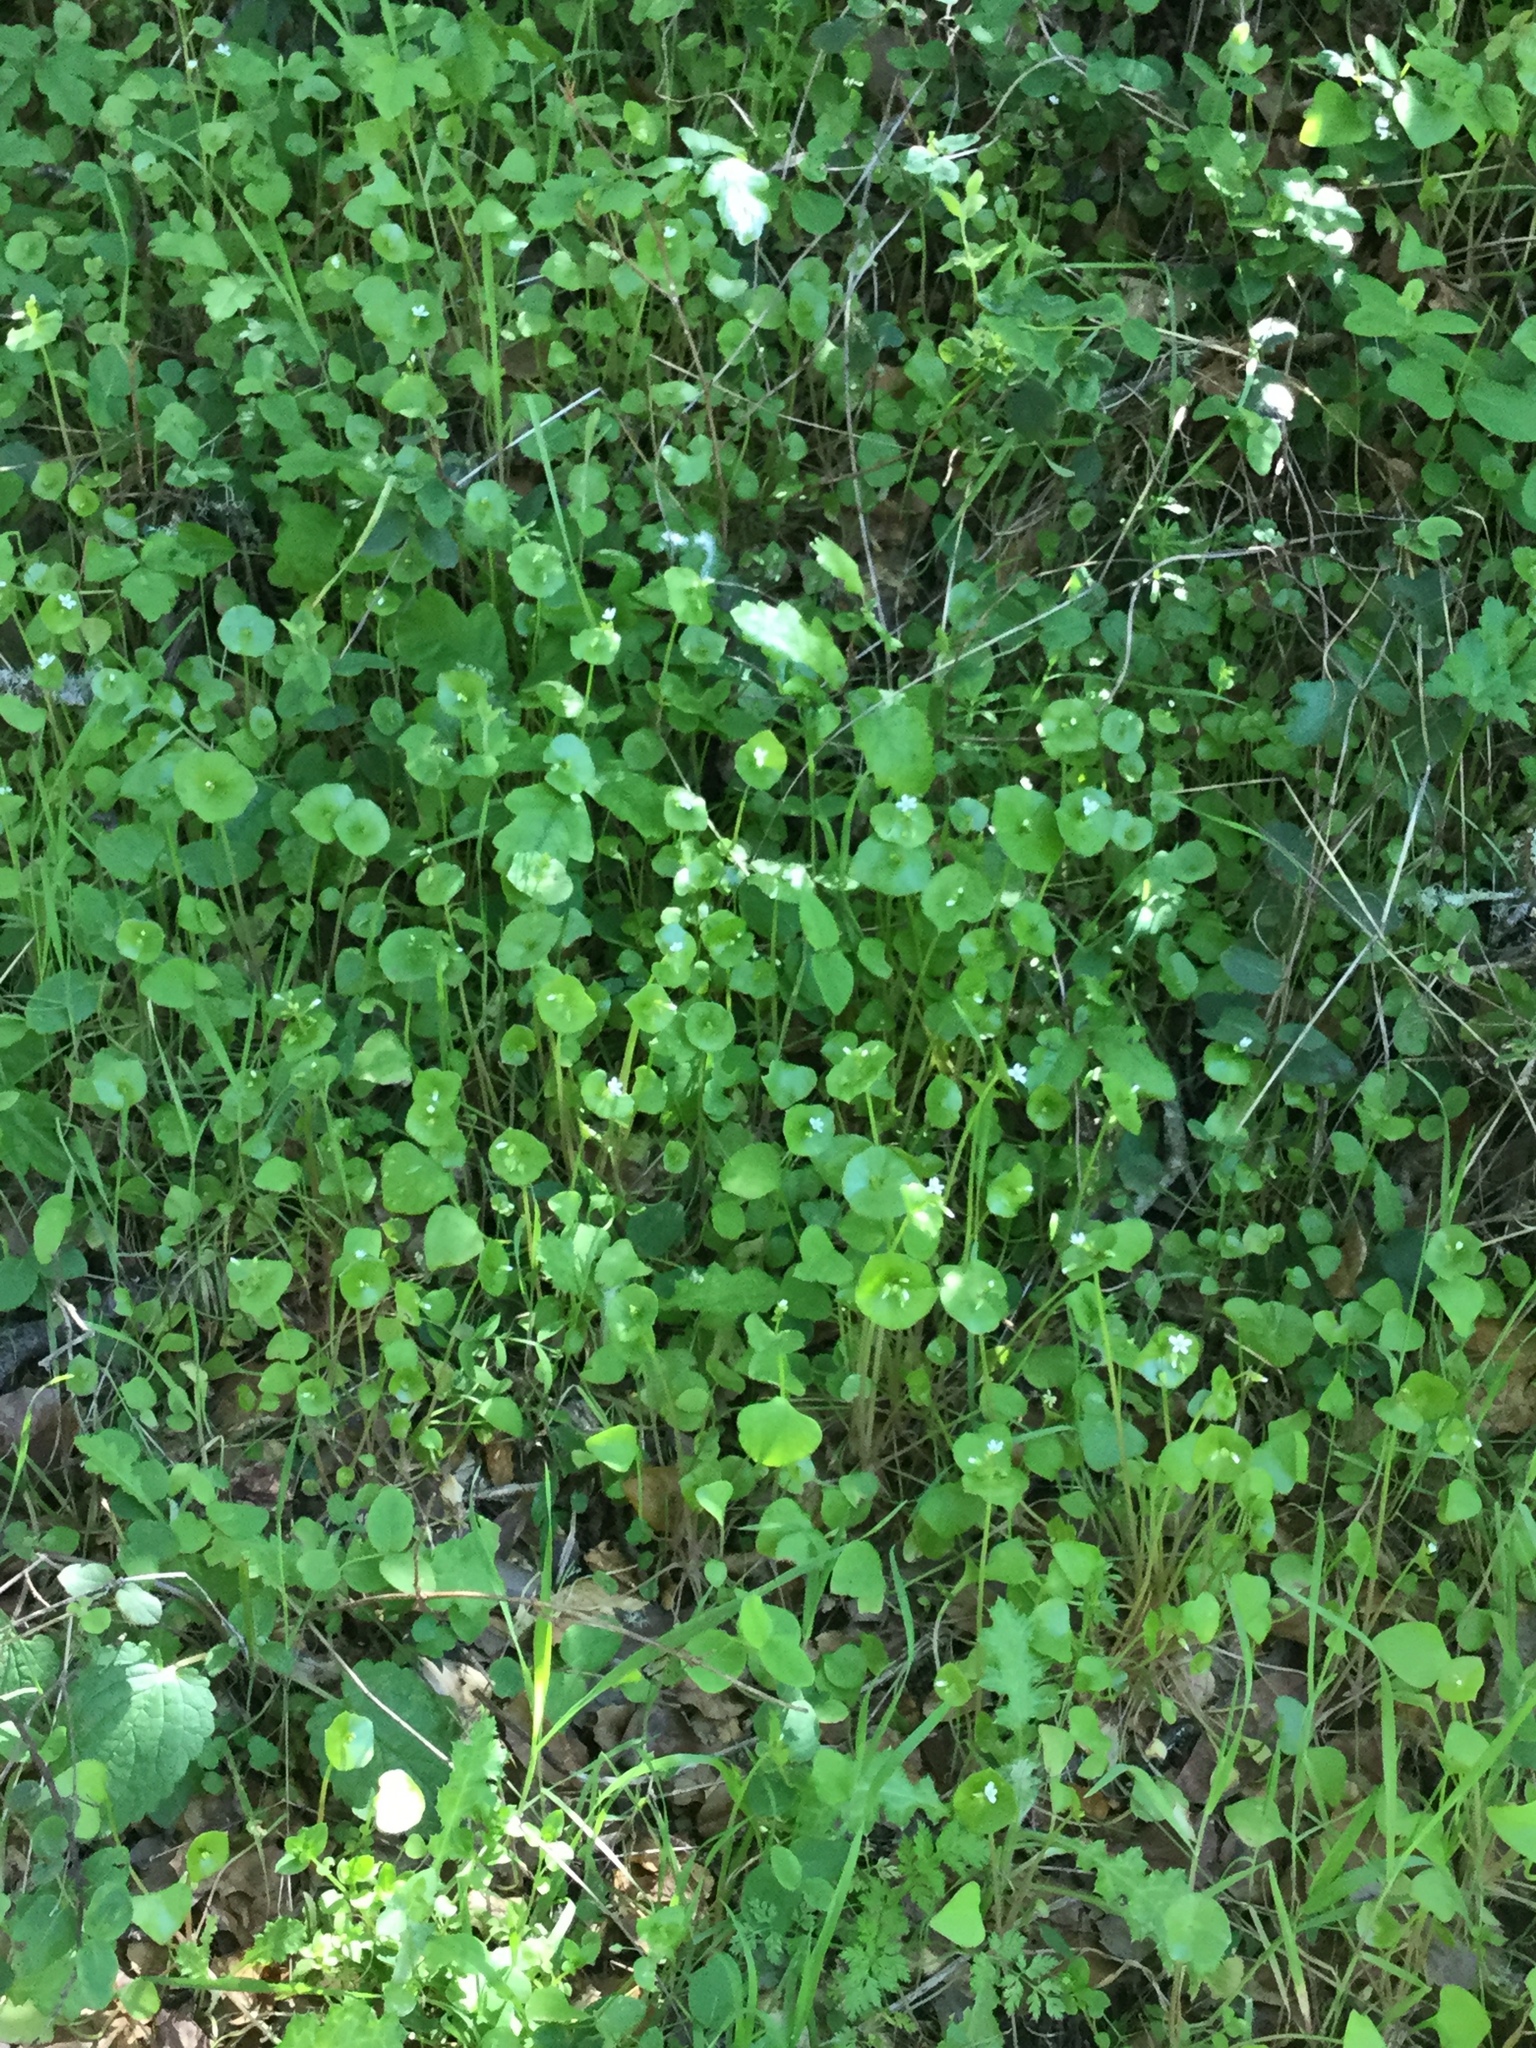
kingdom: Plantae
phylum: Tracheophyta
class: Magnoliopsida
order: Caryophyllales
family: Montiaceae
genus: Claytonia
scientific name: Claytonia perfoliata
